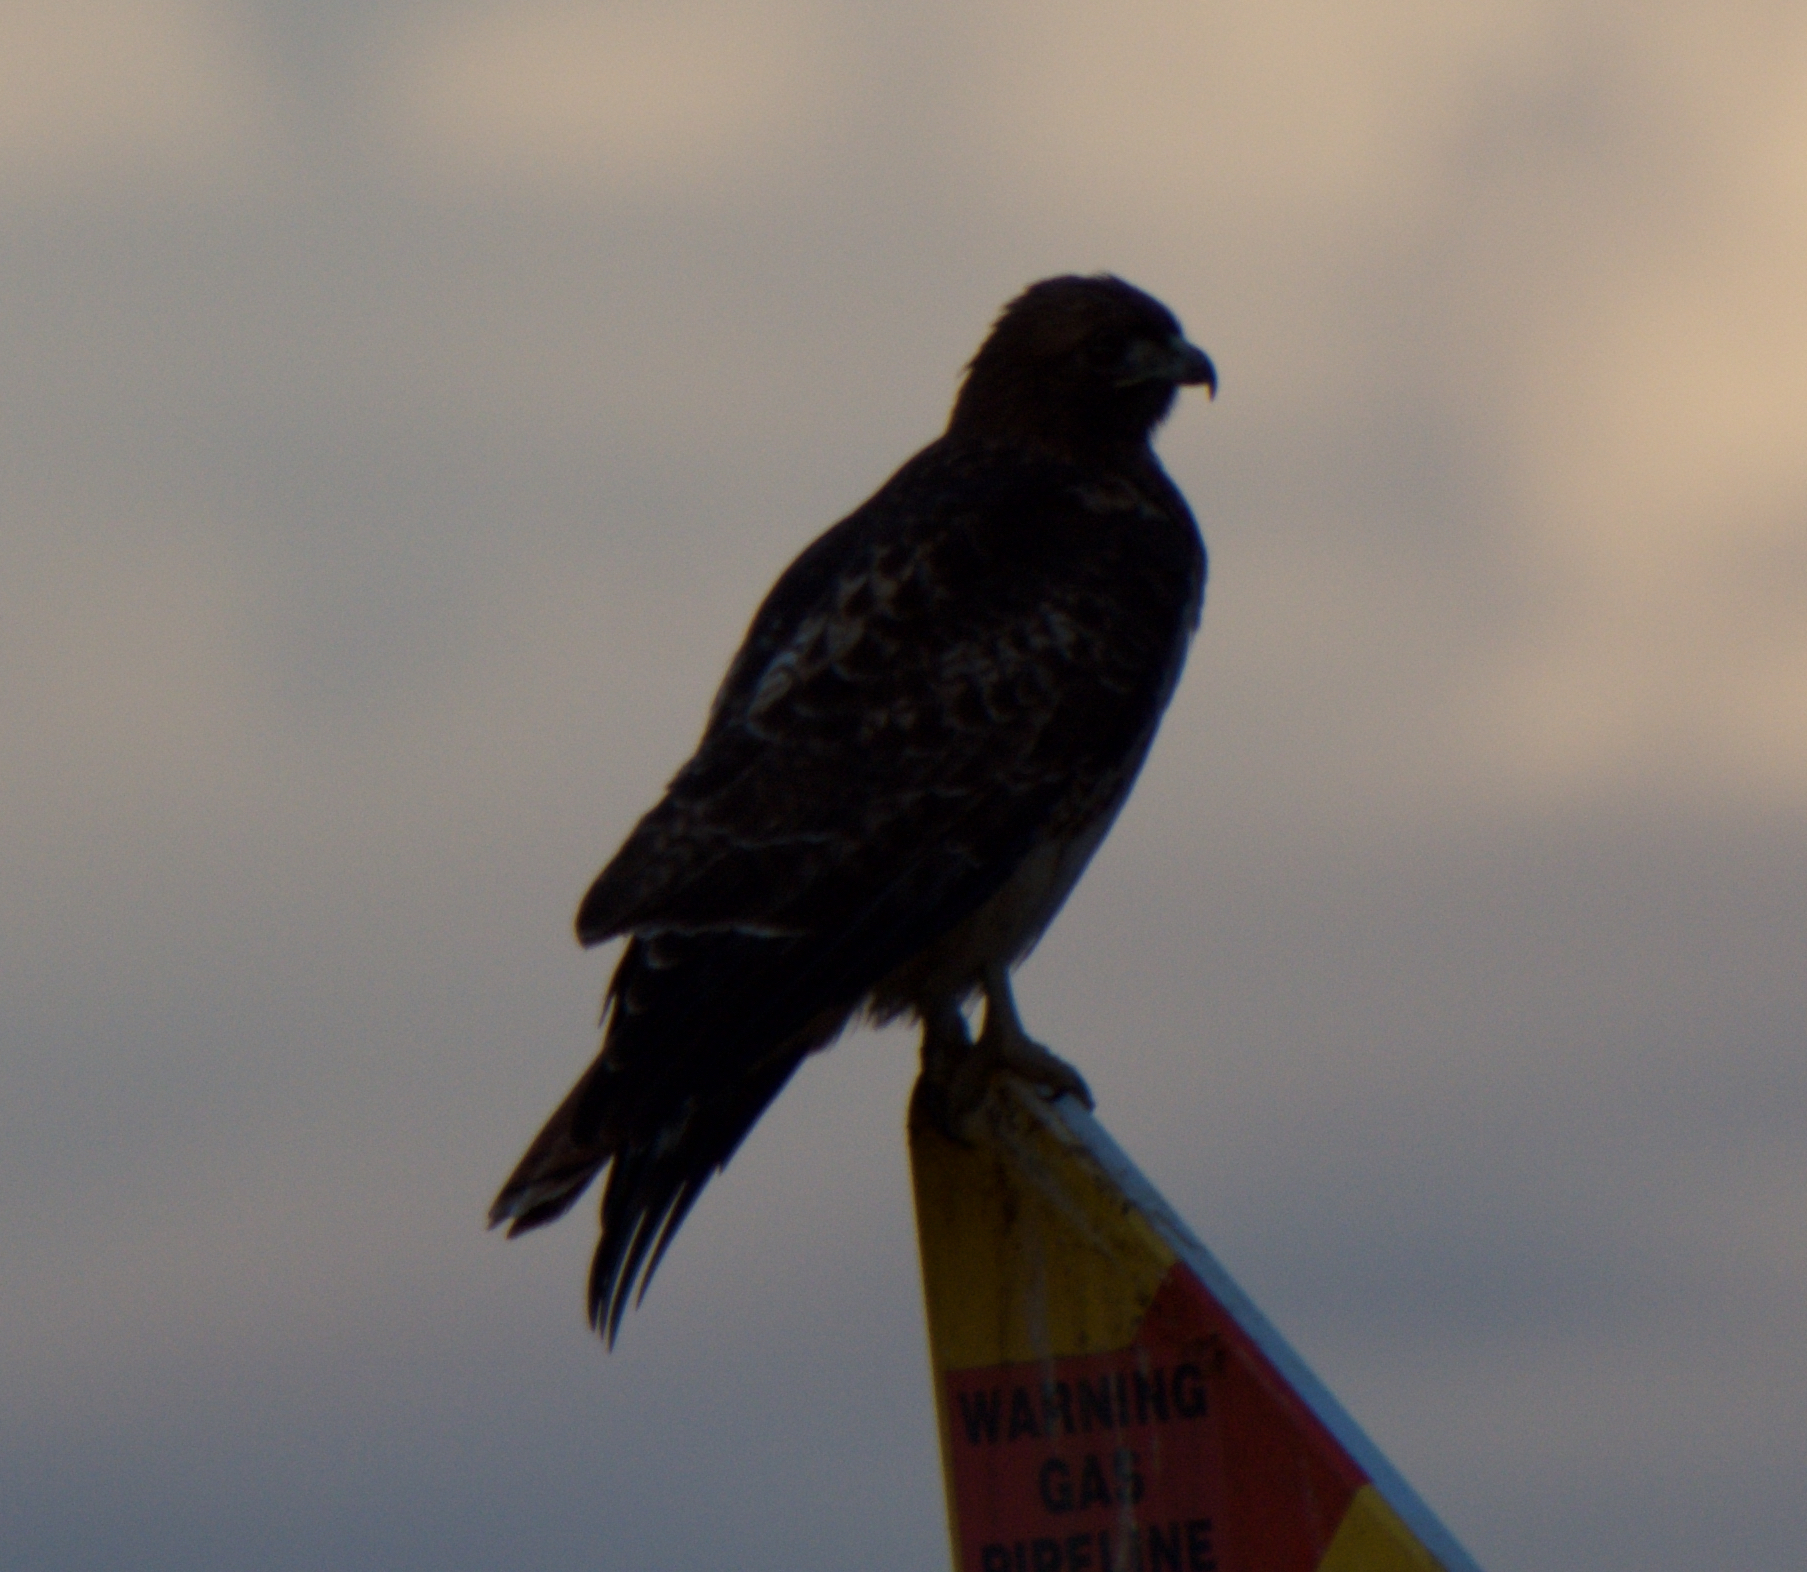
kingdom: Animalia
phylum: Chordata
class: Aves
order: Accipitriformes
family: Accipitridae
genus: Buteo
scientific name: Buteo jamaicensis
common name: Red-tailed hawk
